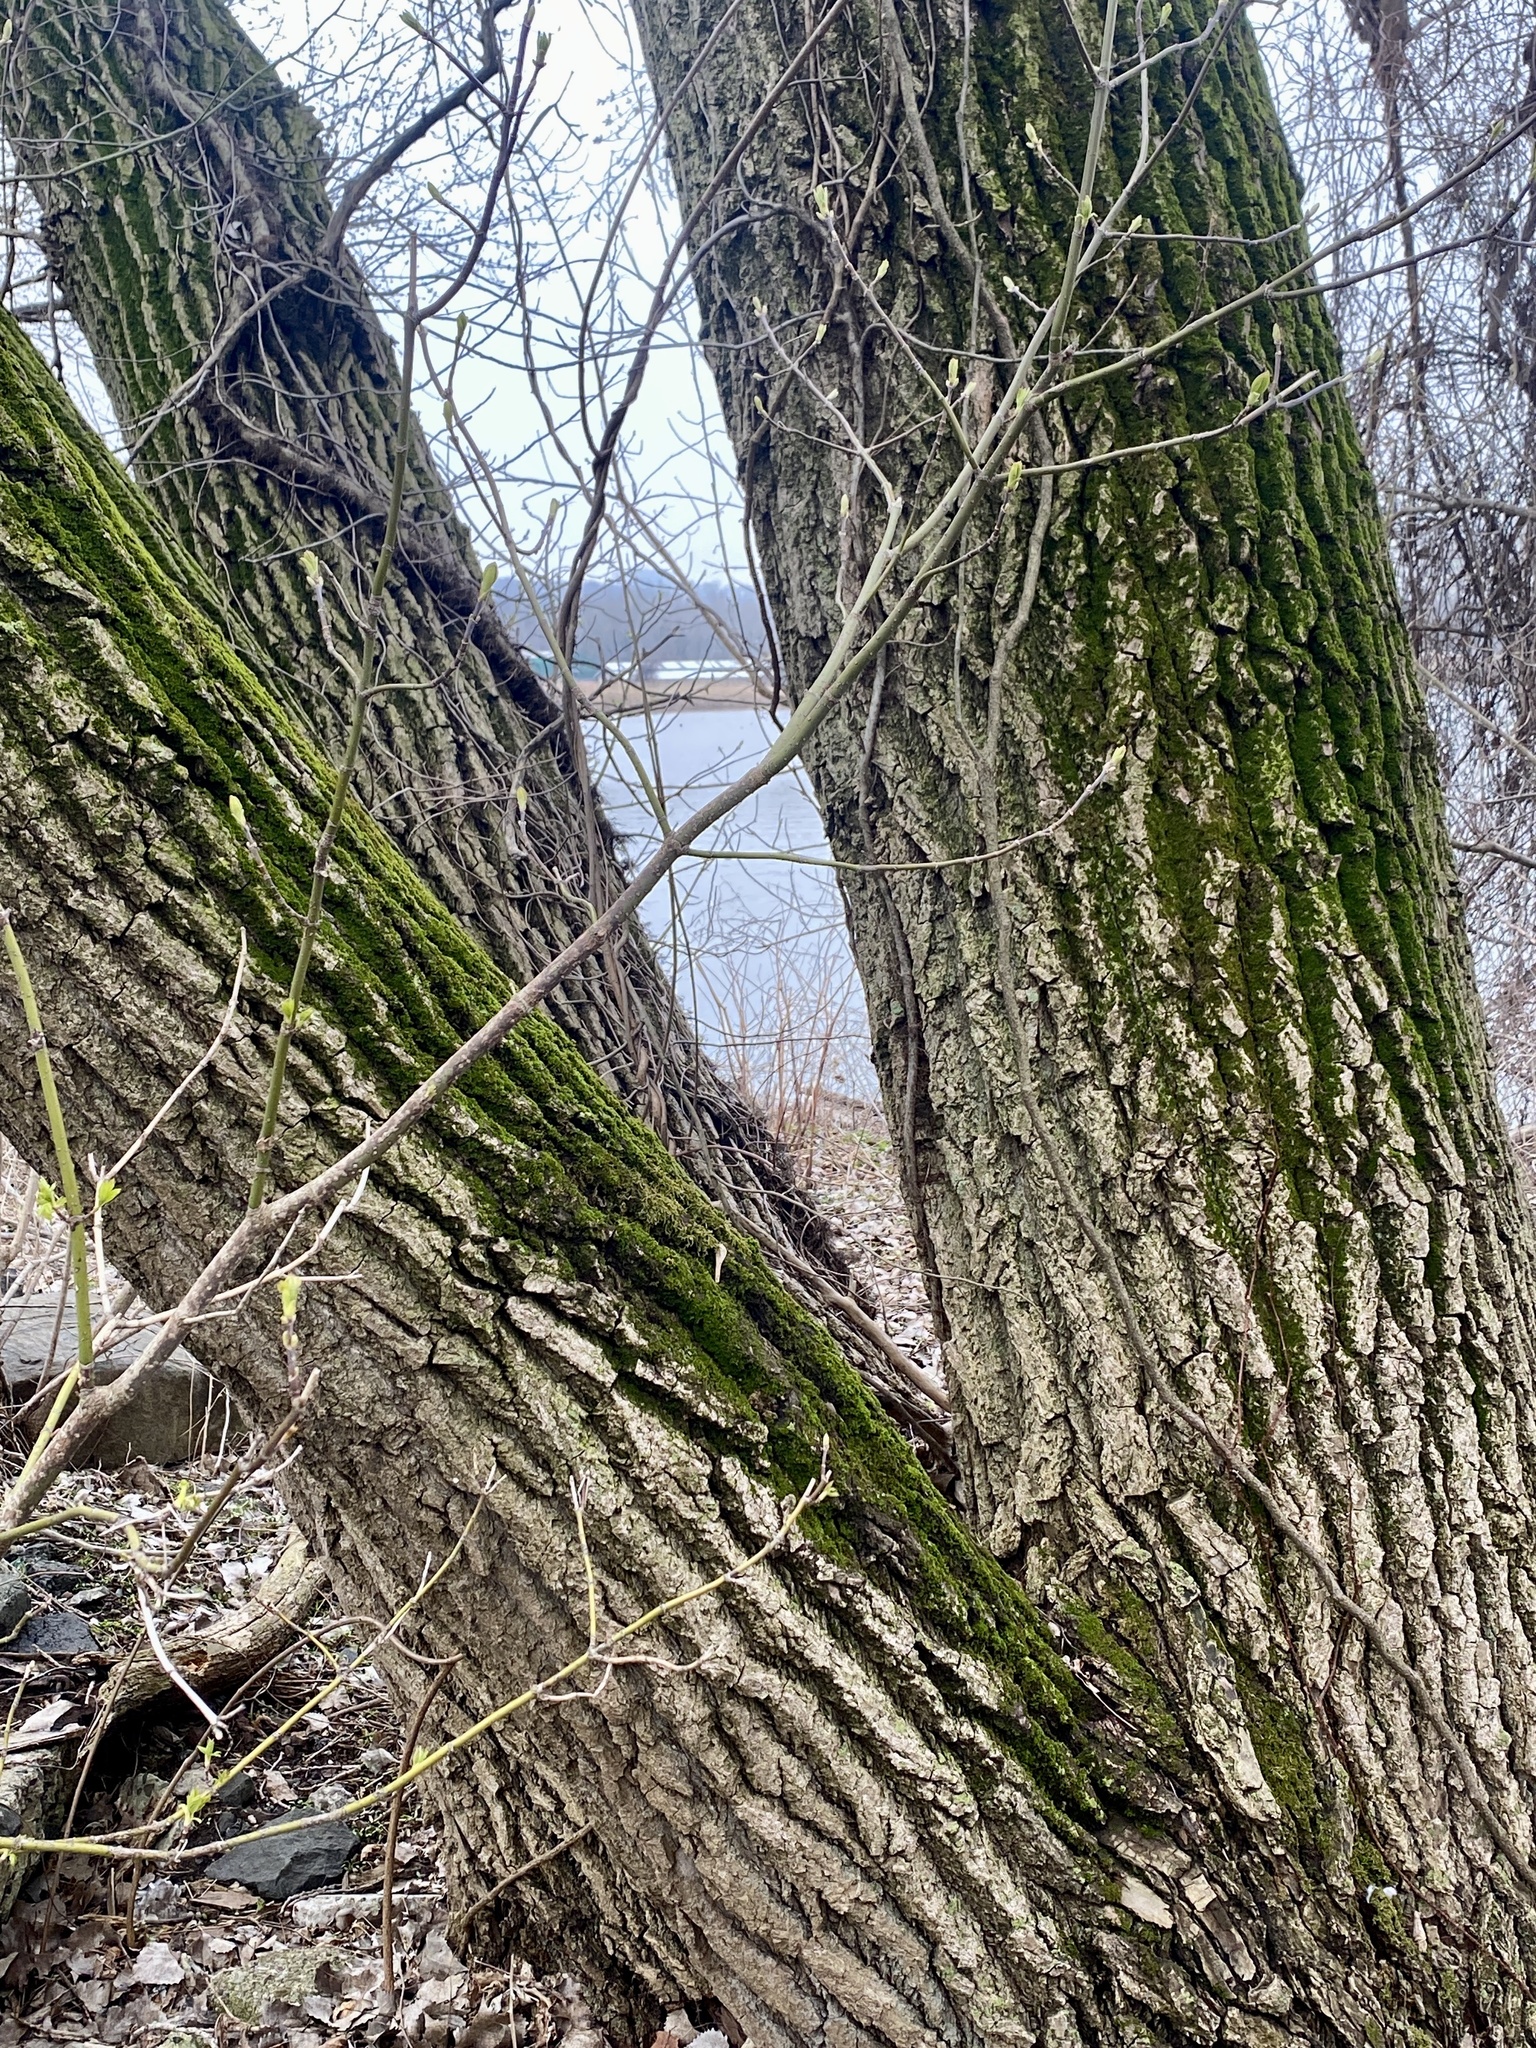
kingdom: Plantae
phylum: Tracheophyta
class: Magnoliopsida
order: Malpighiales
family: Salicaceae
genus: Populus
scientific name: Populus deltoides
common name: Eastern cottonwood
